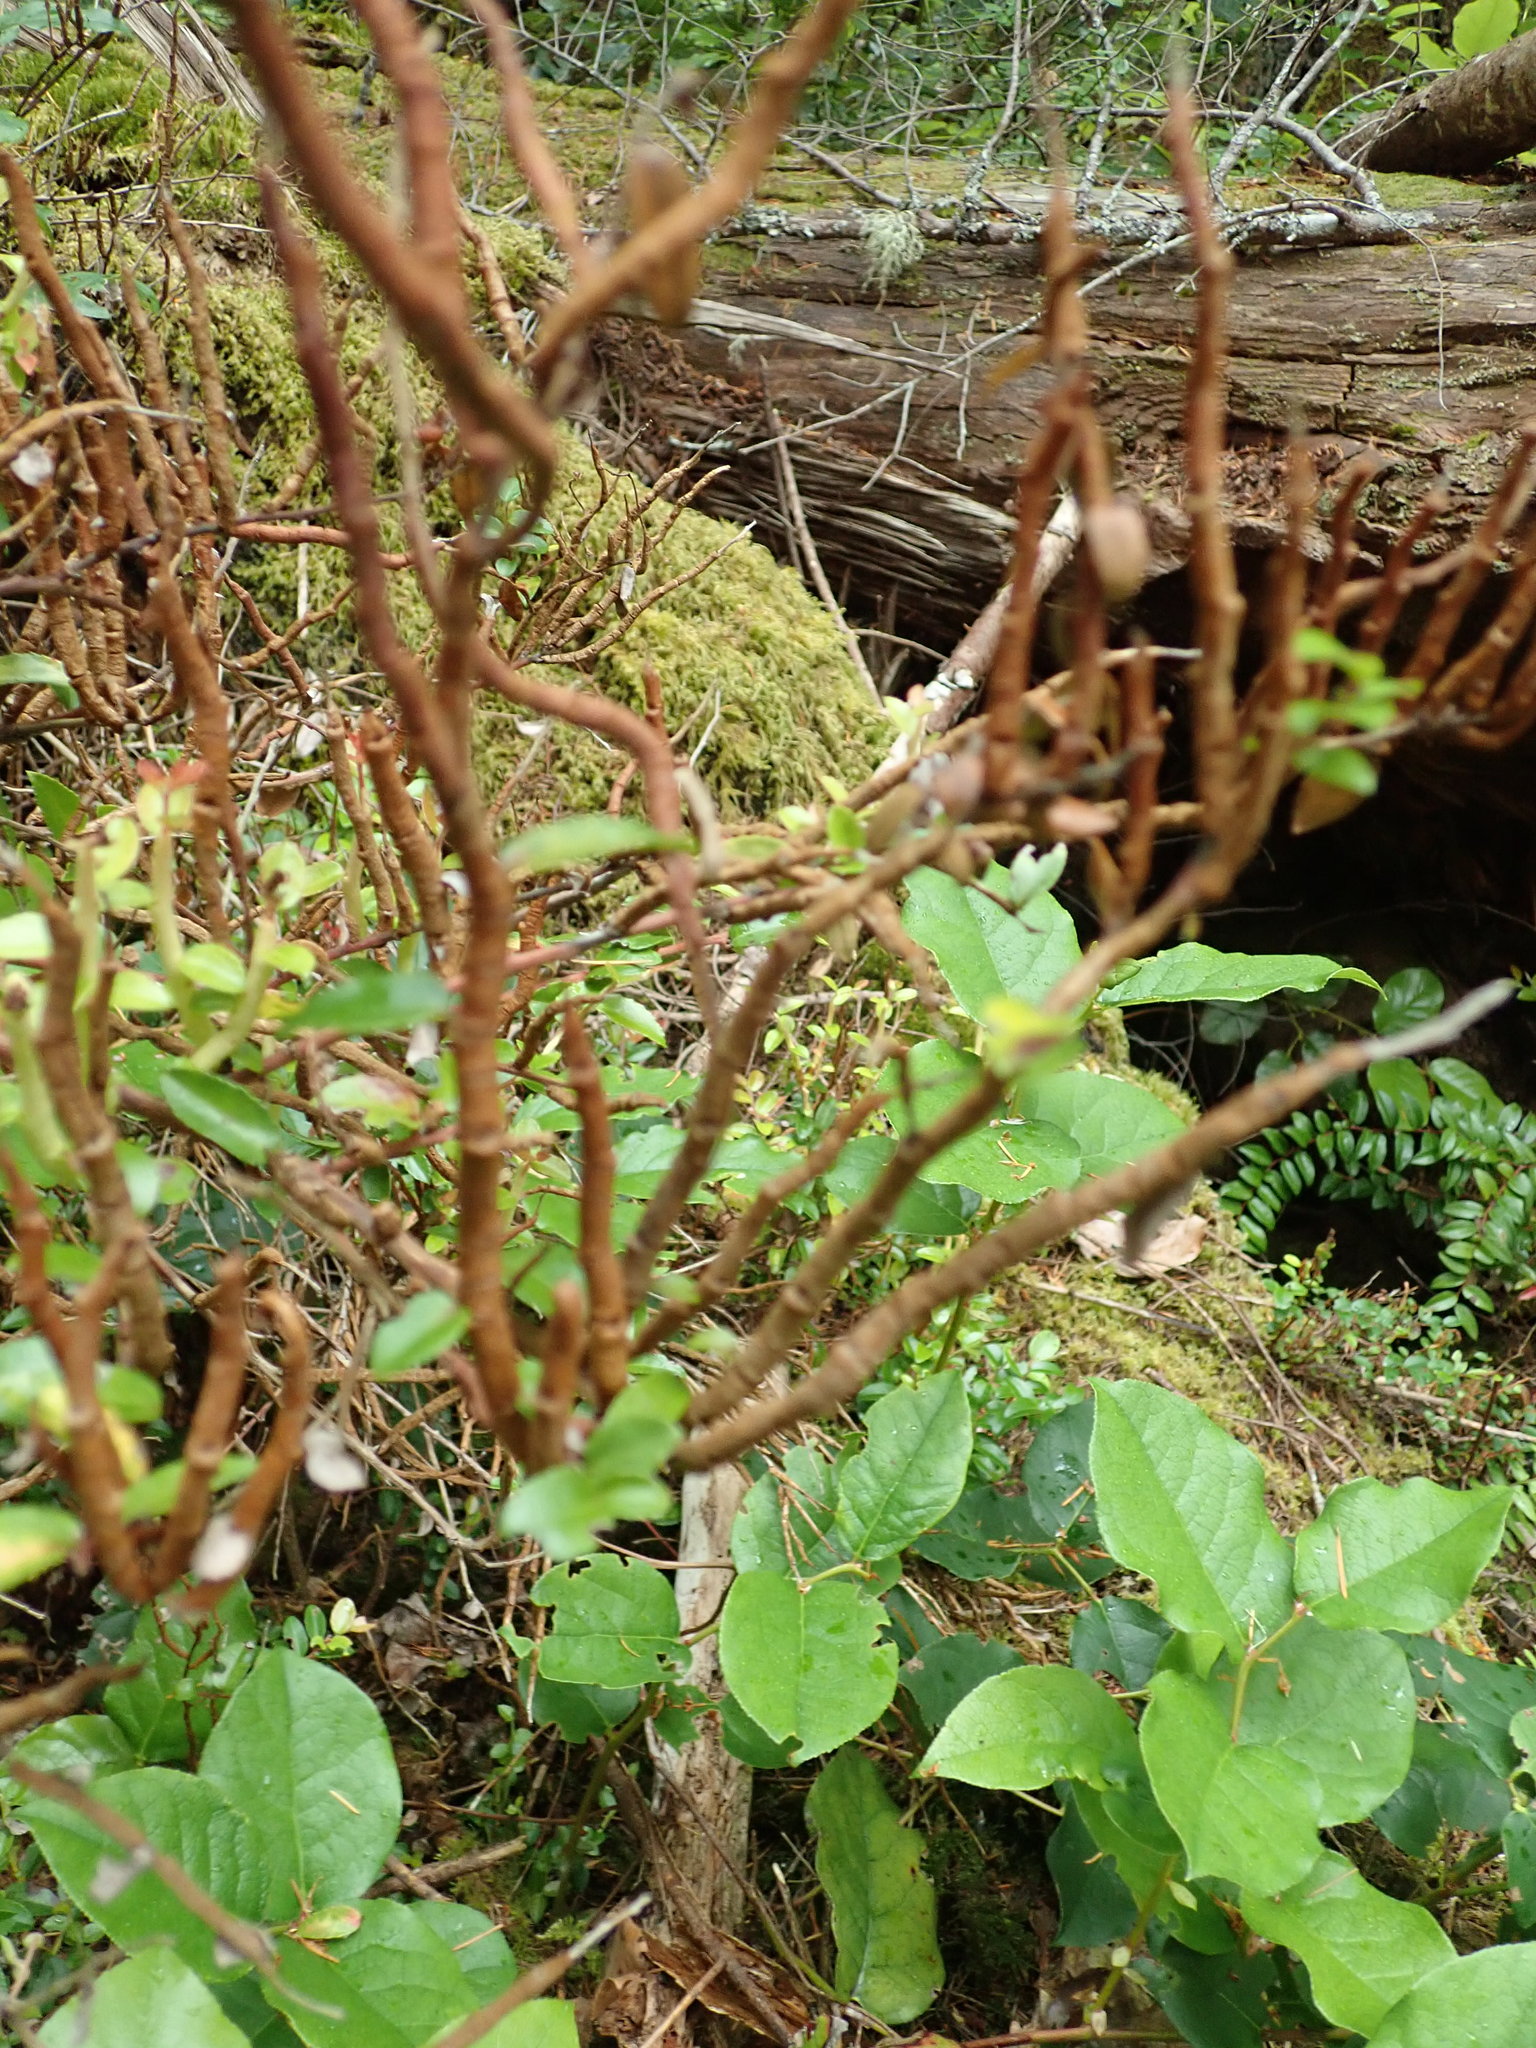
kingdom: Fungi
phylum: Basidiomycota
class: Pucciniomycetes
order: Pucciniales
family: Pucciniastraceae
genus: Calyptospora
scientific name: Calyptospora
